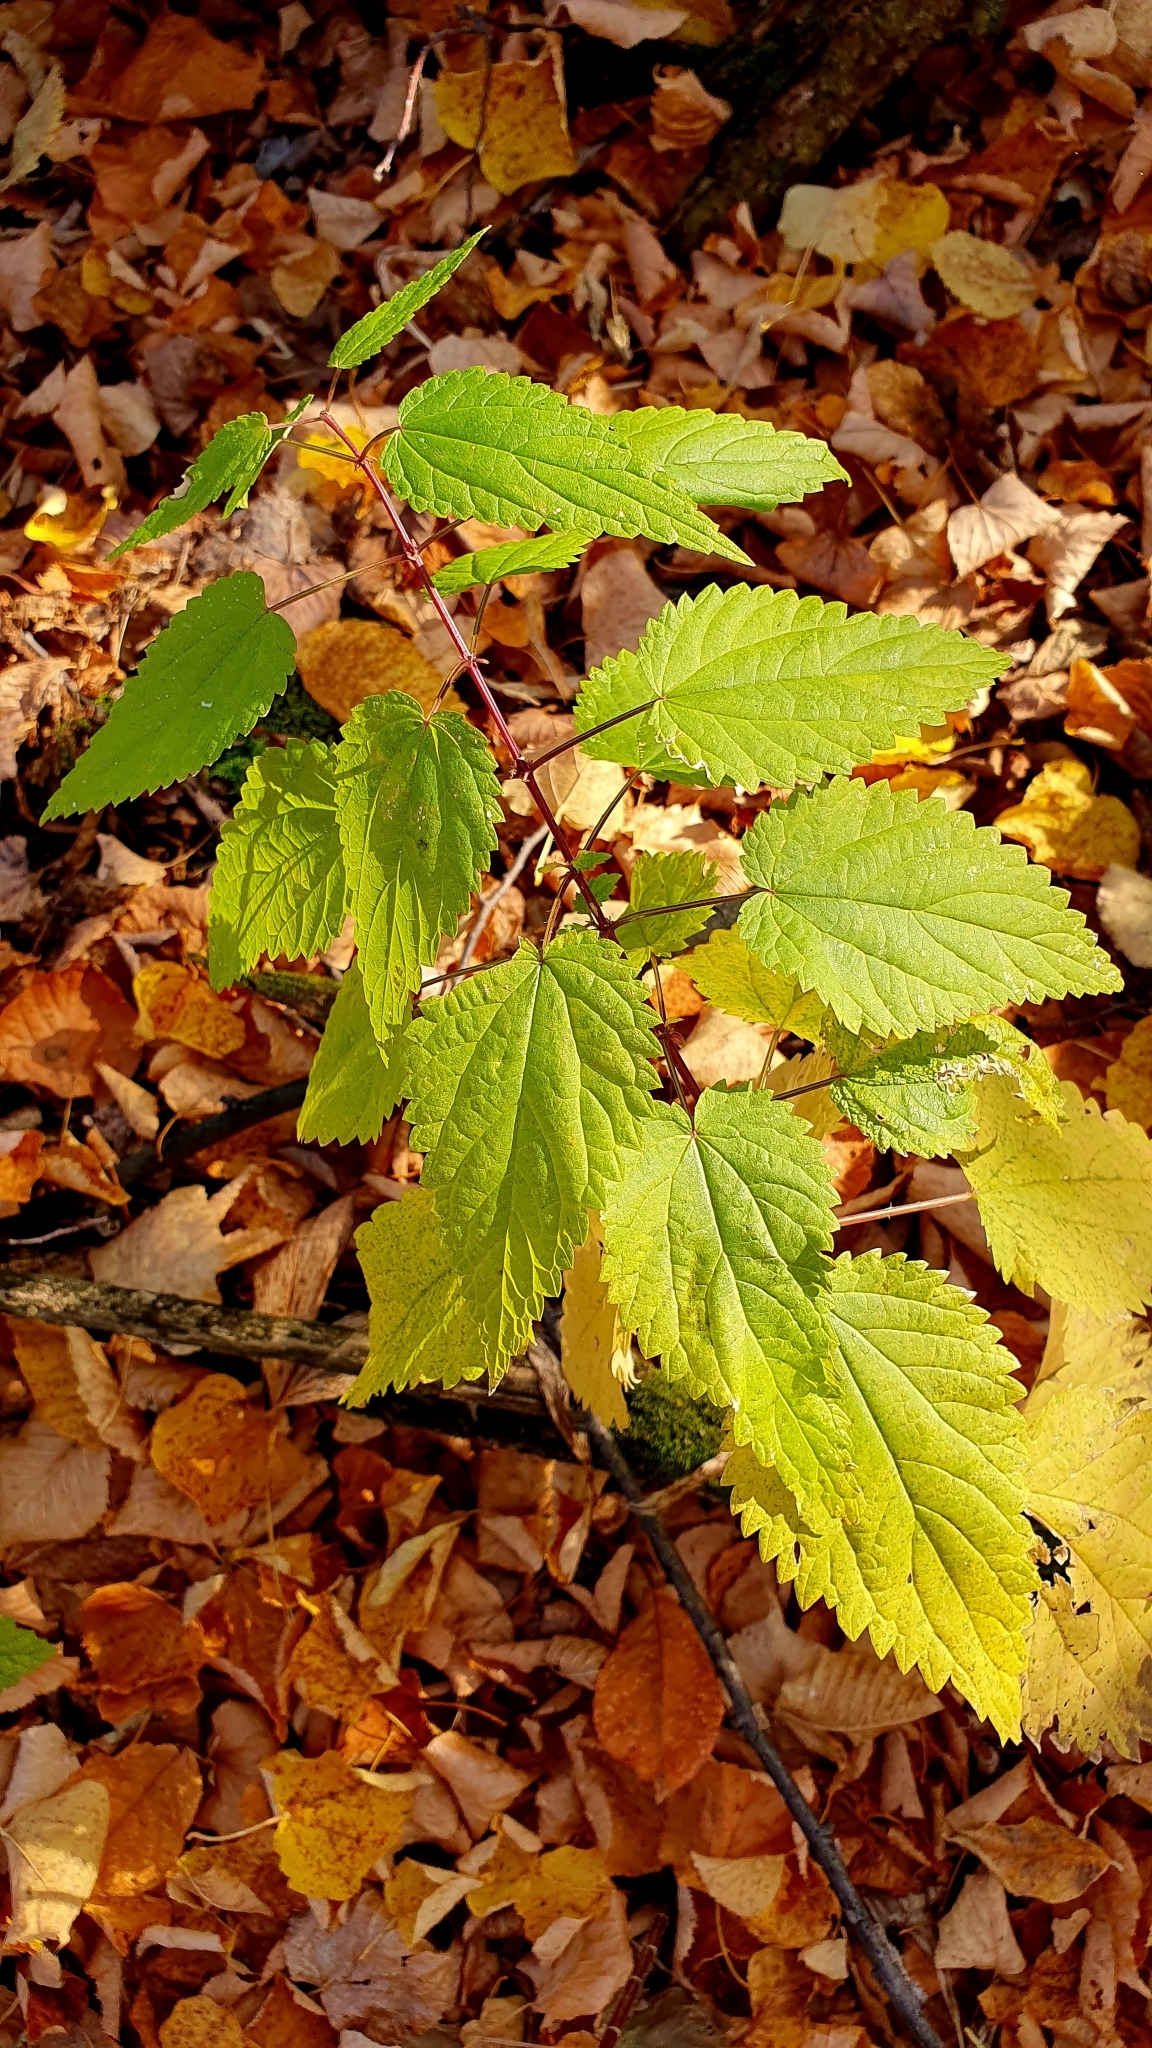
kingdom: Plantae
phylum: Tracheophyta
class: Magnoliopsida
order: Rosales
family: Urticaceae
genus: Urtica
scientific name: Urtica dioica
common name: Common nettle
